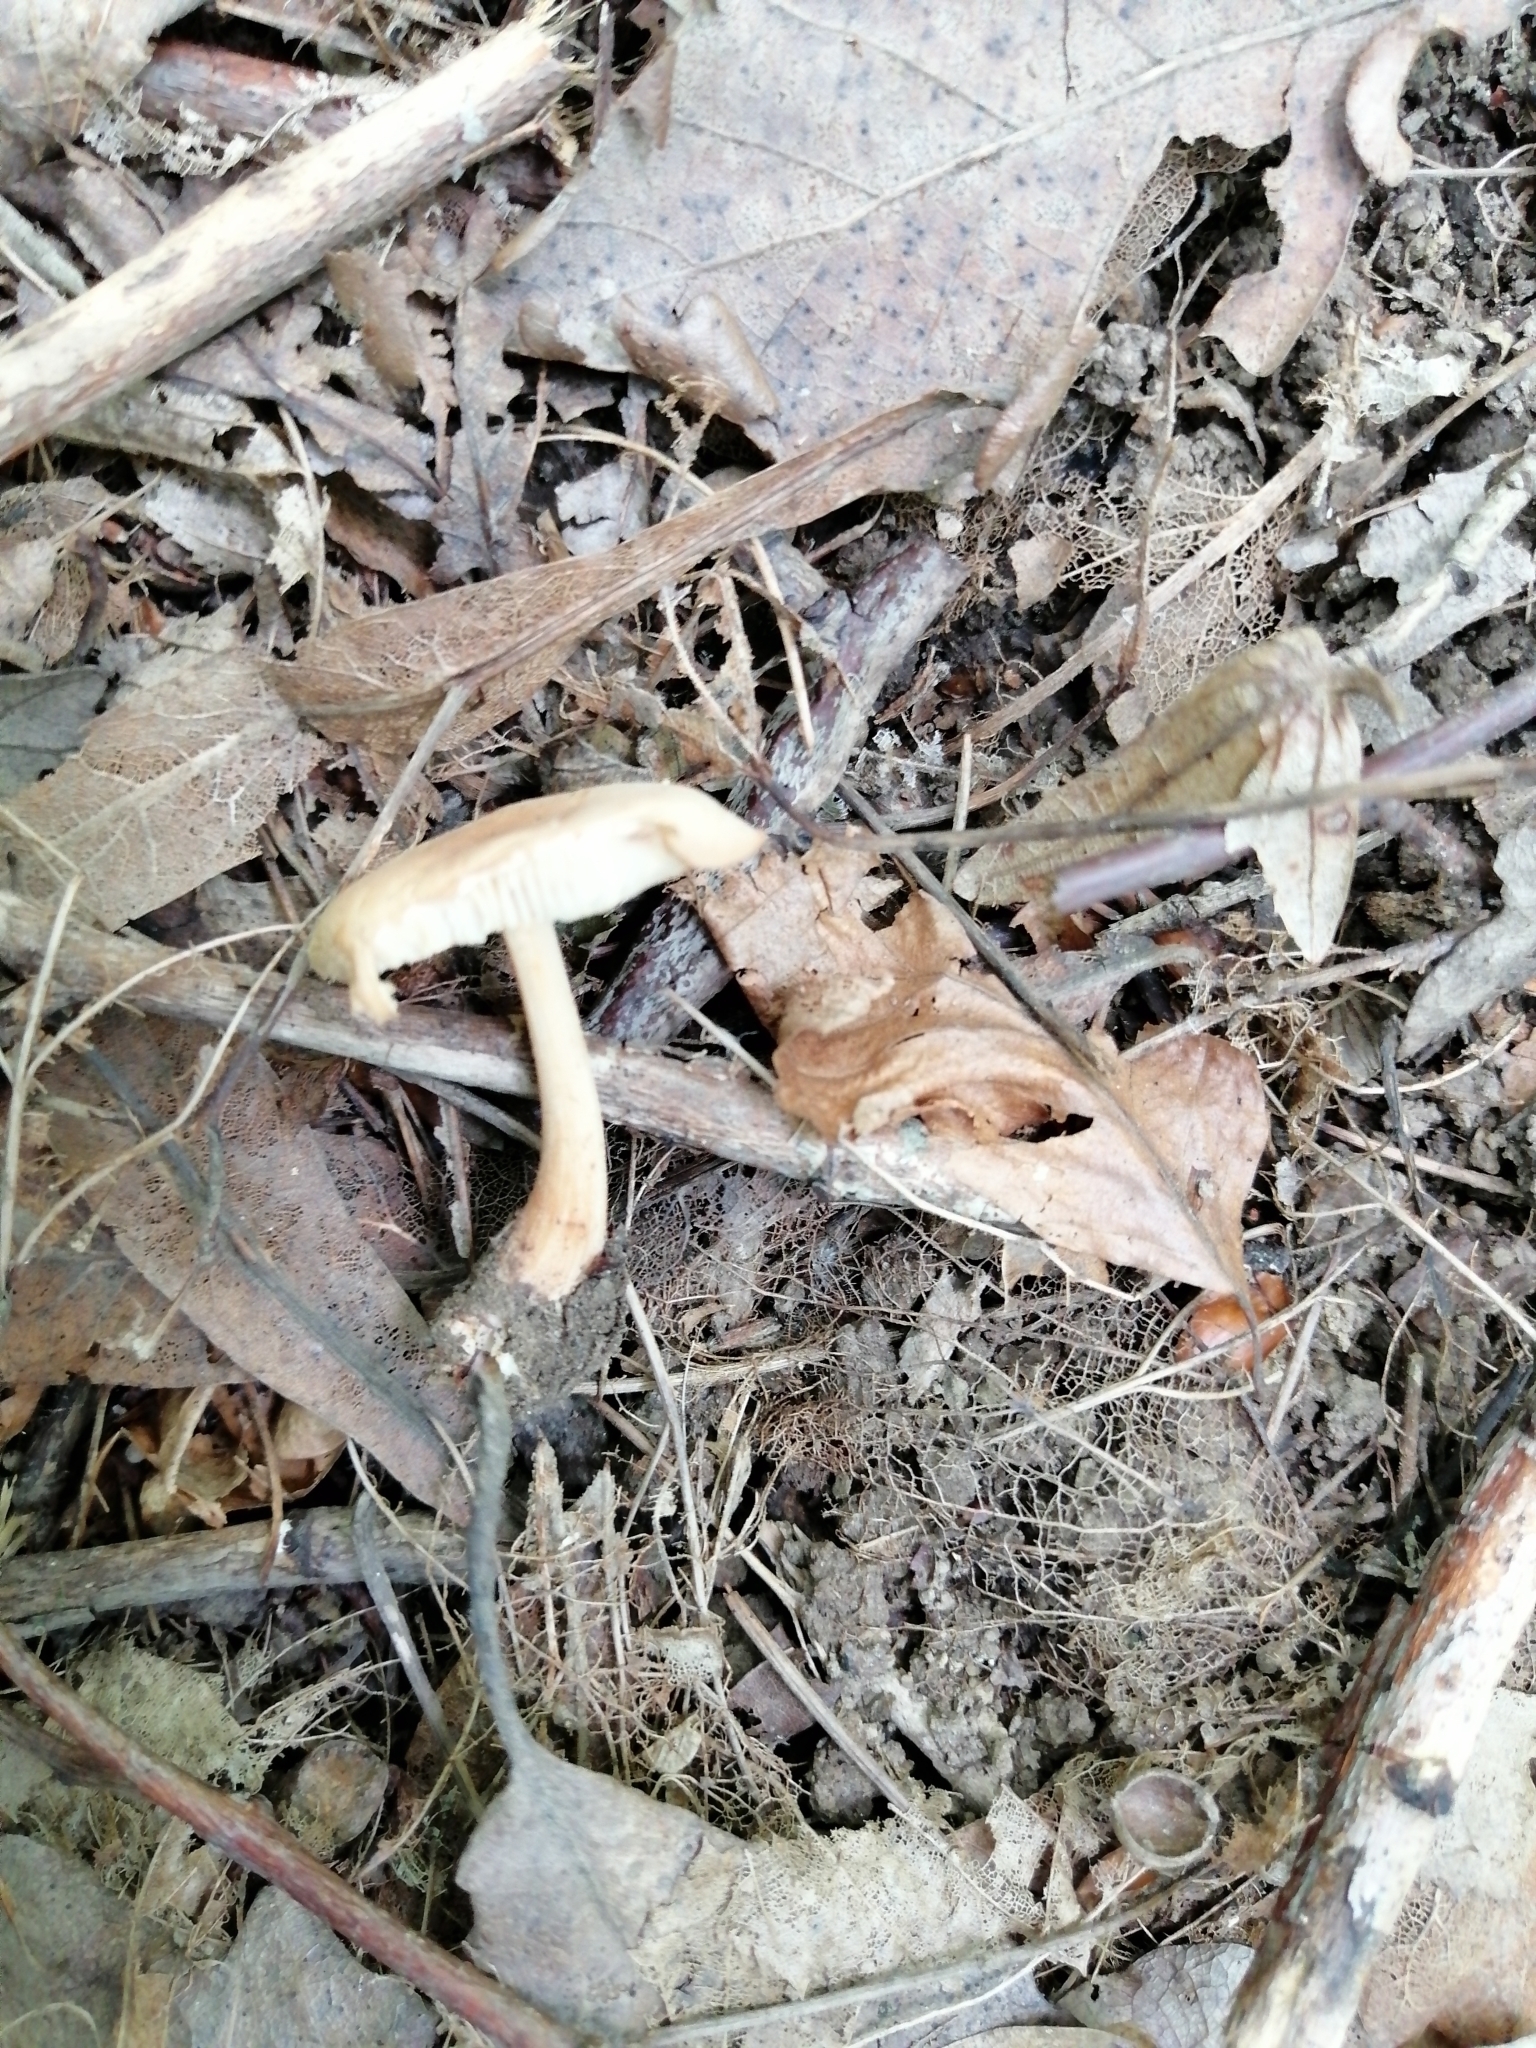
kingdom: Fungi
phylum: Basidiomycota
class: Agaricomycetes
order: Agaricales
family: Omphalotaceae
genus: Gymnopus
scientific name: Gymnopus dryophilus
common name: Penny top
